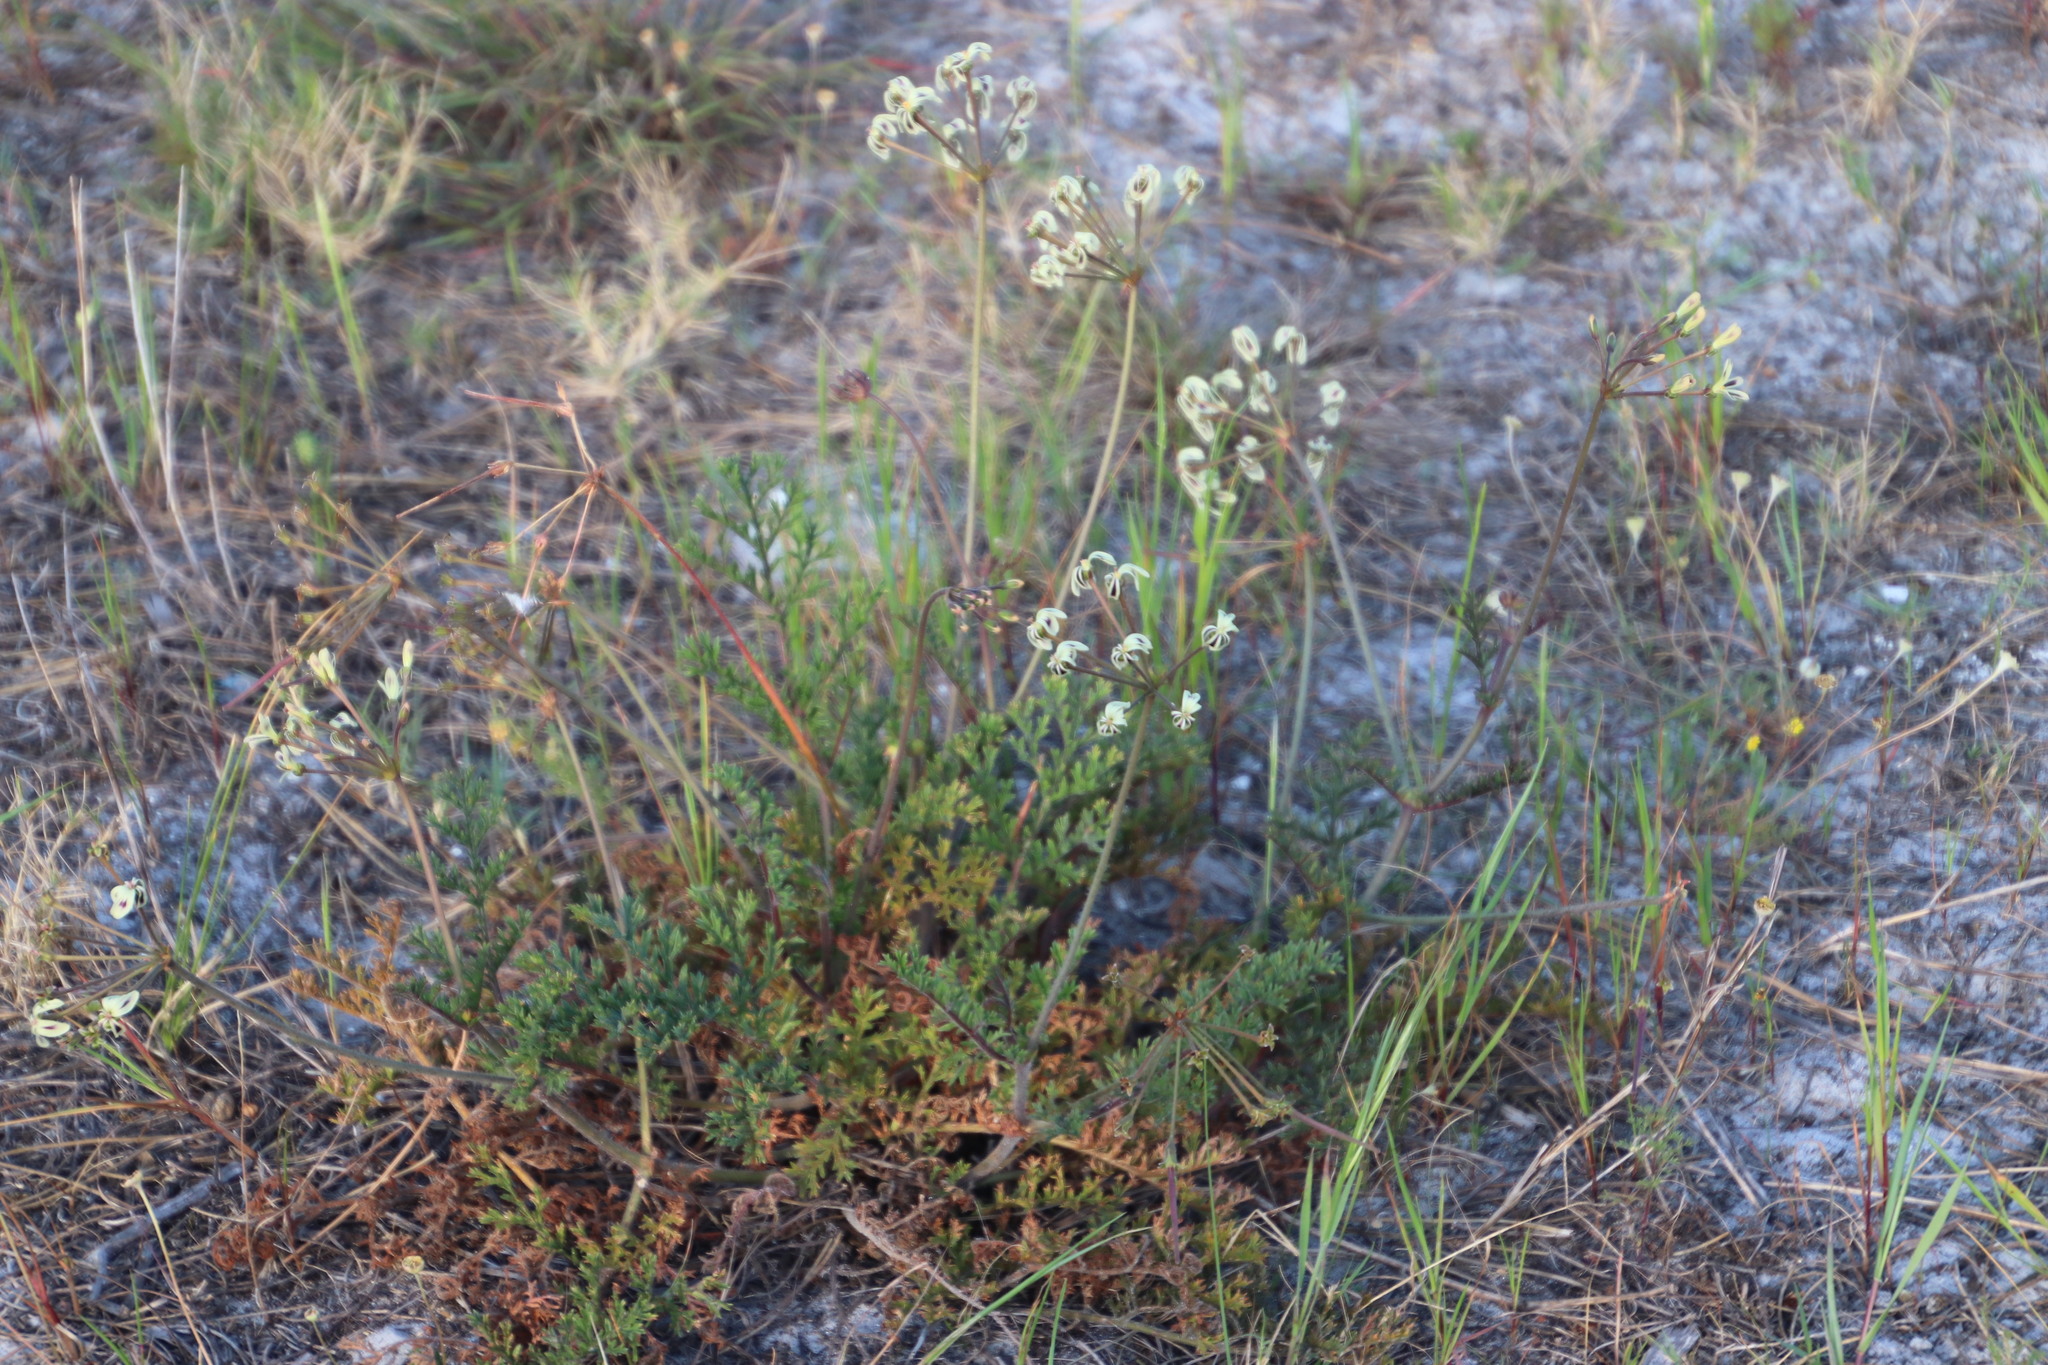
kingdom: Plantae
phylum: Tracheophyta
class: Magnoliopsida
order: Geraniales
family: Geraniaceae
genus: Pelargonium
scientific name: Pelargonium triste
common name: Night-scent pelargonium
